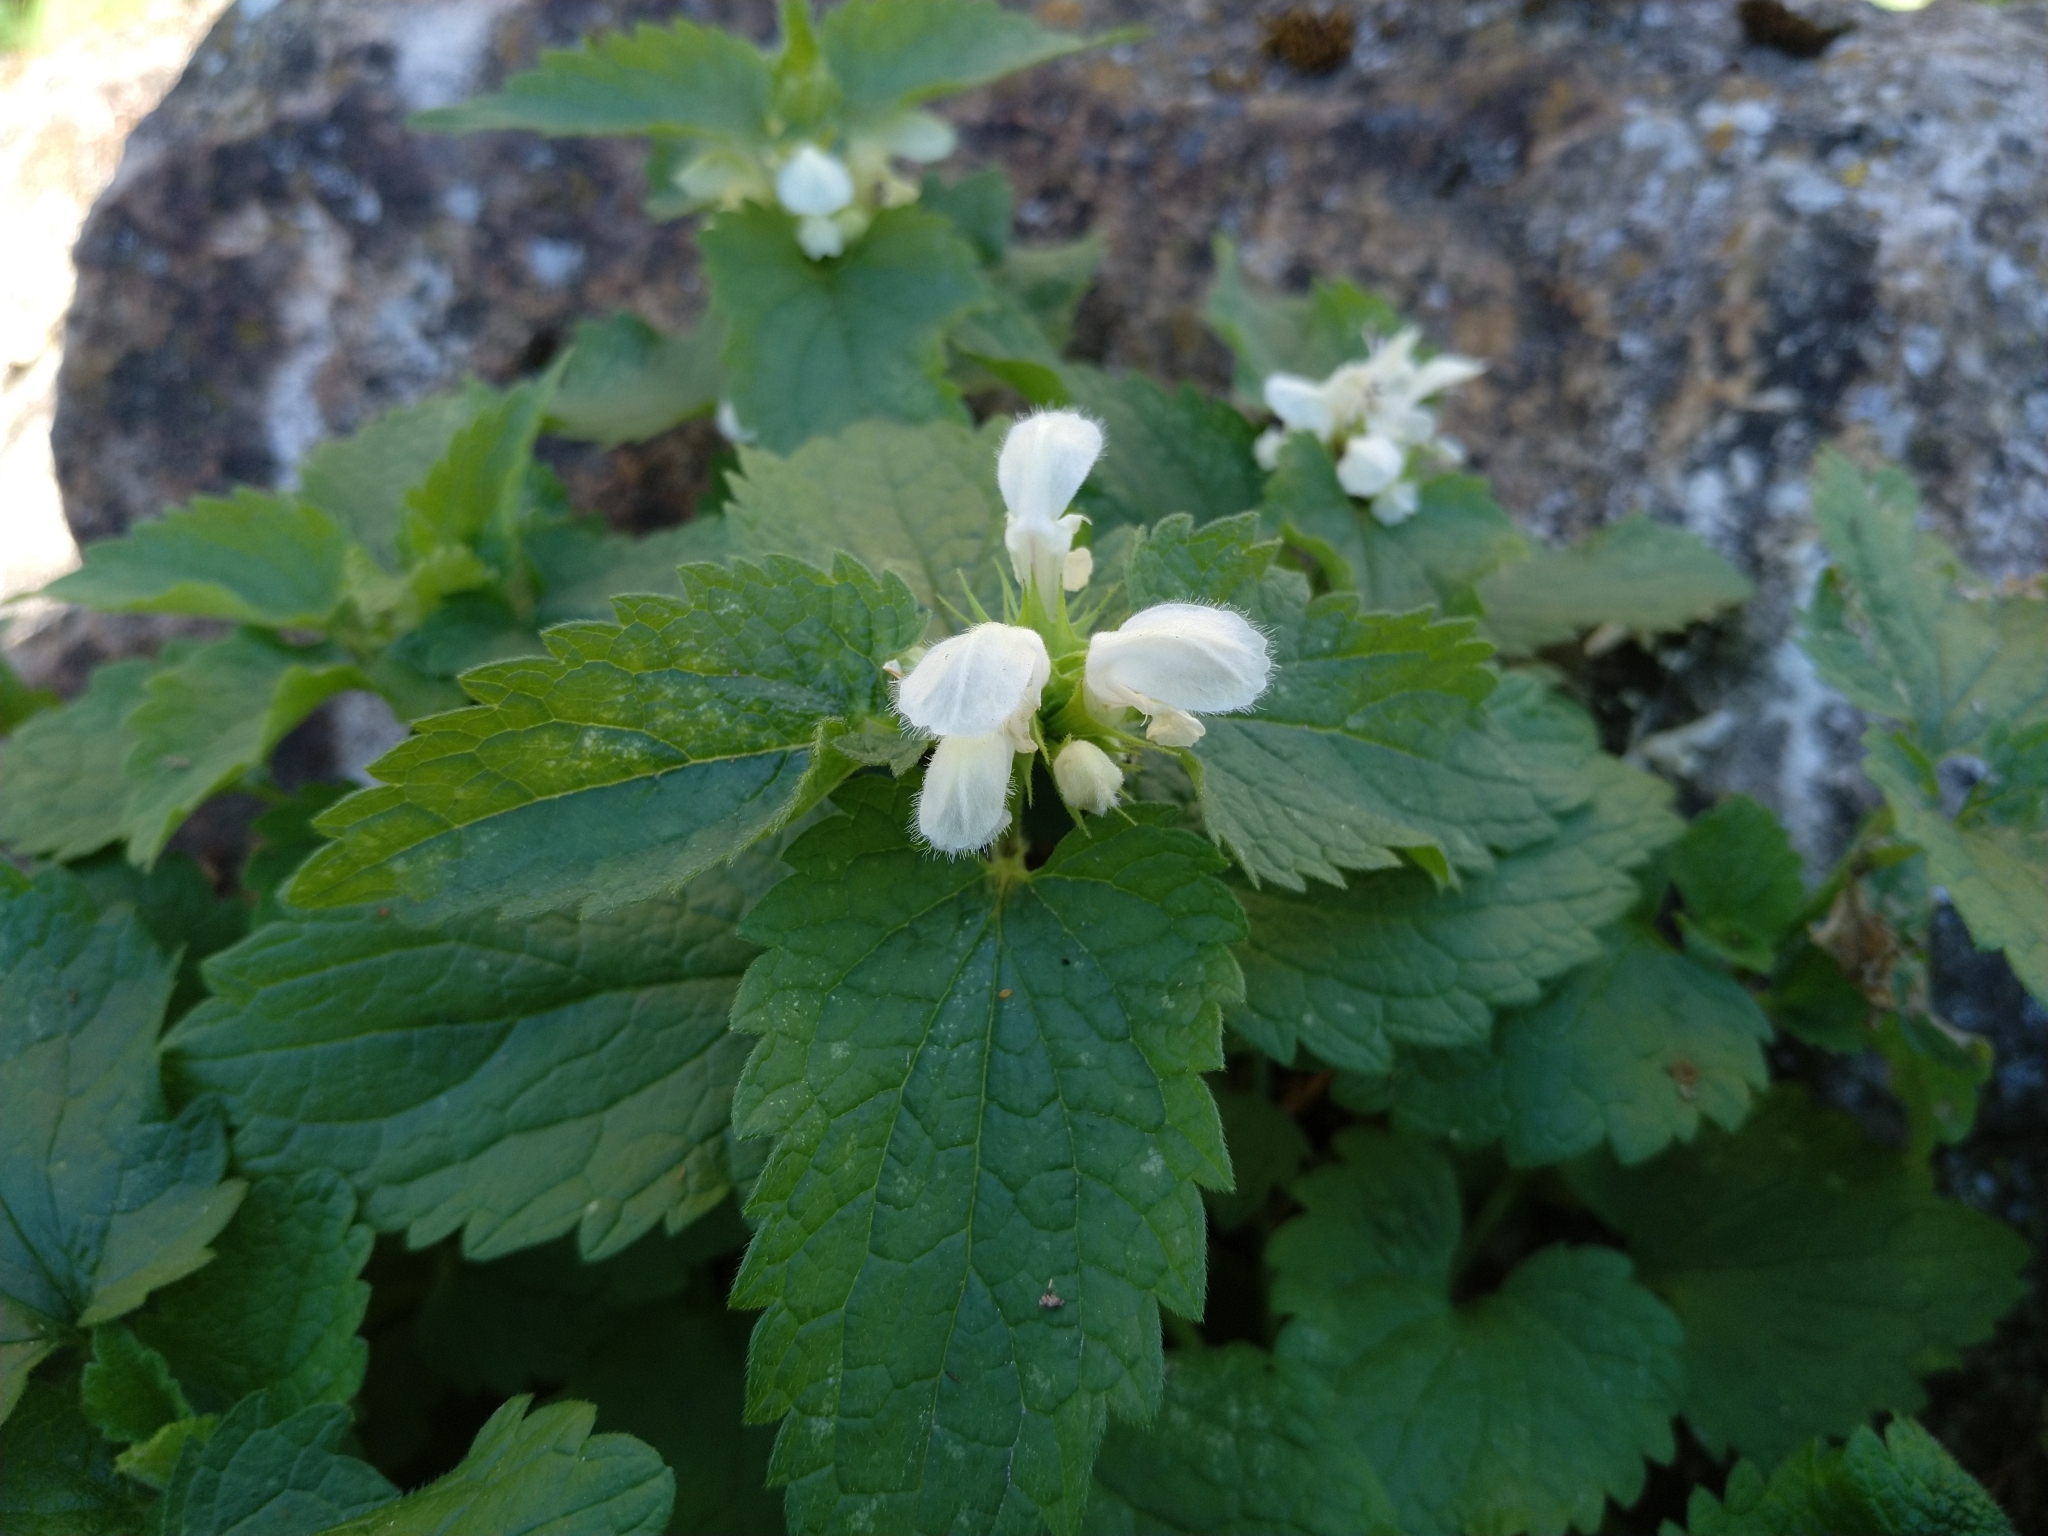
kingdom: Plantae
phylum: Tracheophyta
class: Magnoliopsida
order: Lamiales
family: Lamiaceae
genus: Lamium
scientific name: Lamium album
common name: White dead-nettle
